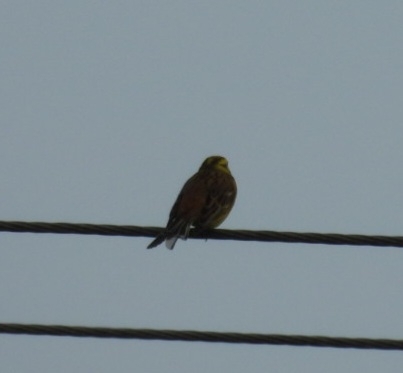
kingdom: Animalia
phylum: Chordata
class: Aves
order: Passeriformes
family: Emberizidae
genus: Emberiza
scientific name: Emberiza citrinella
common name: Yellowhammer
